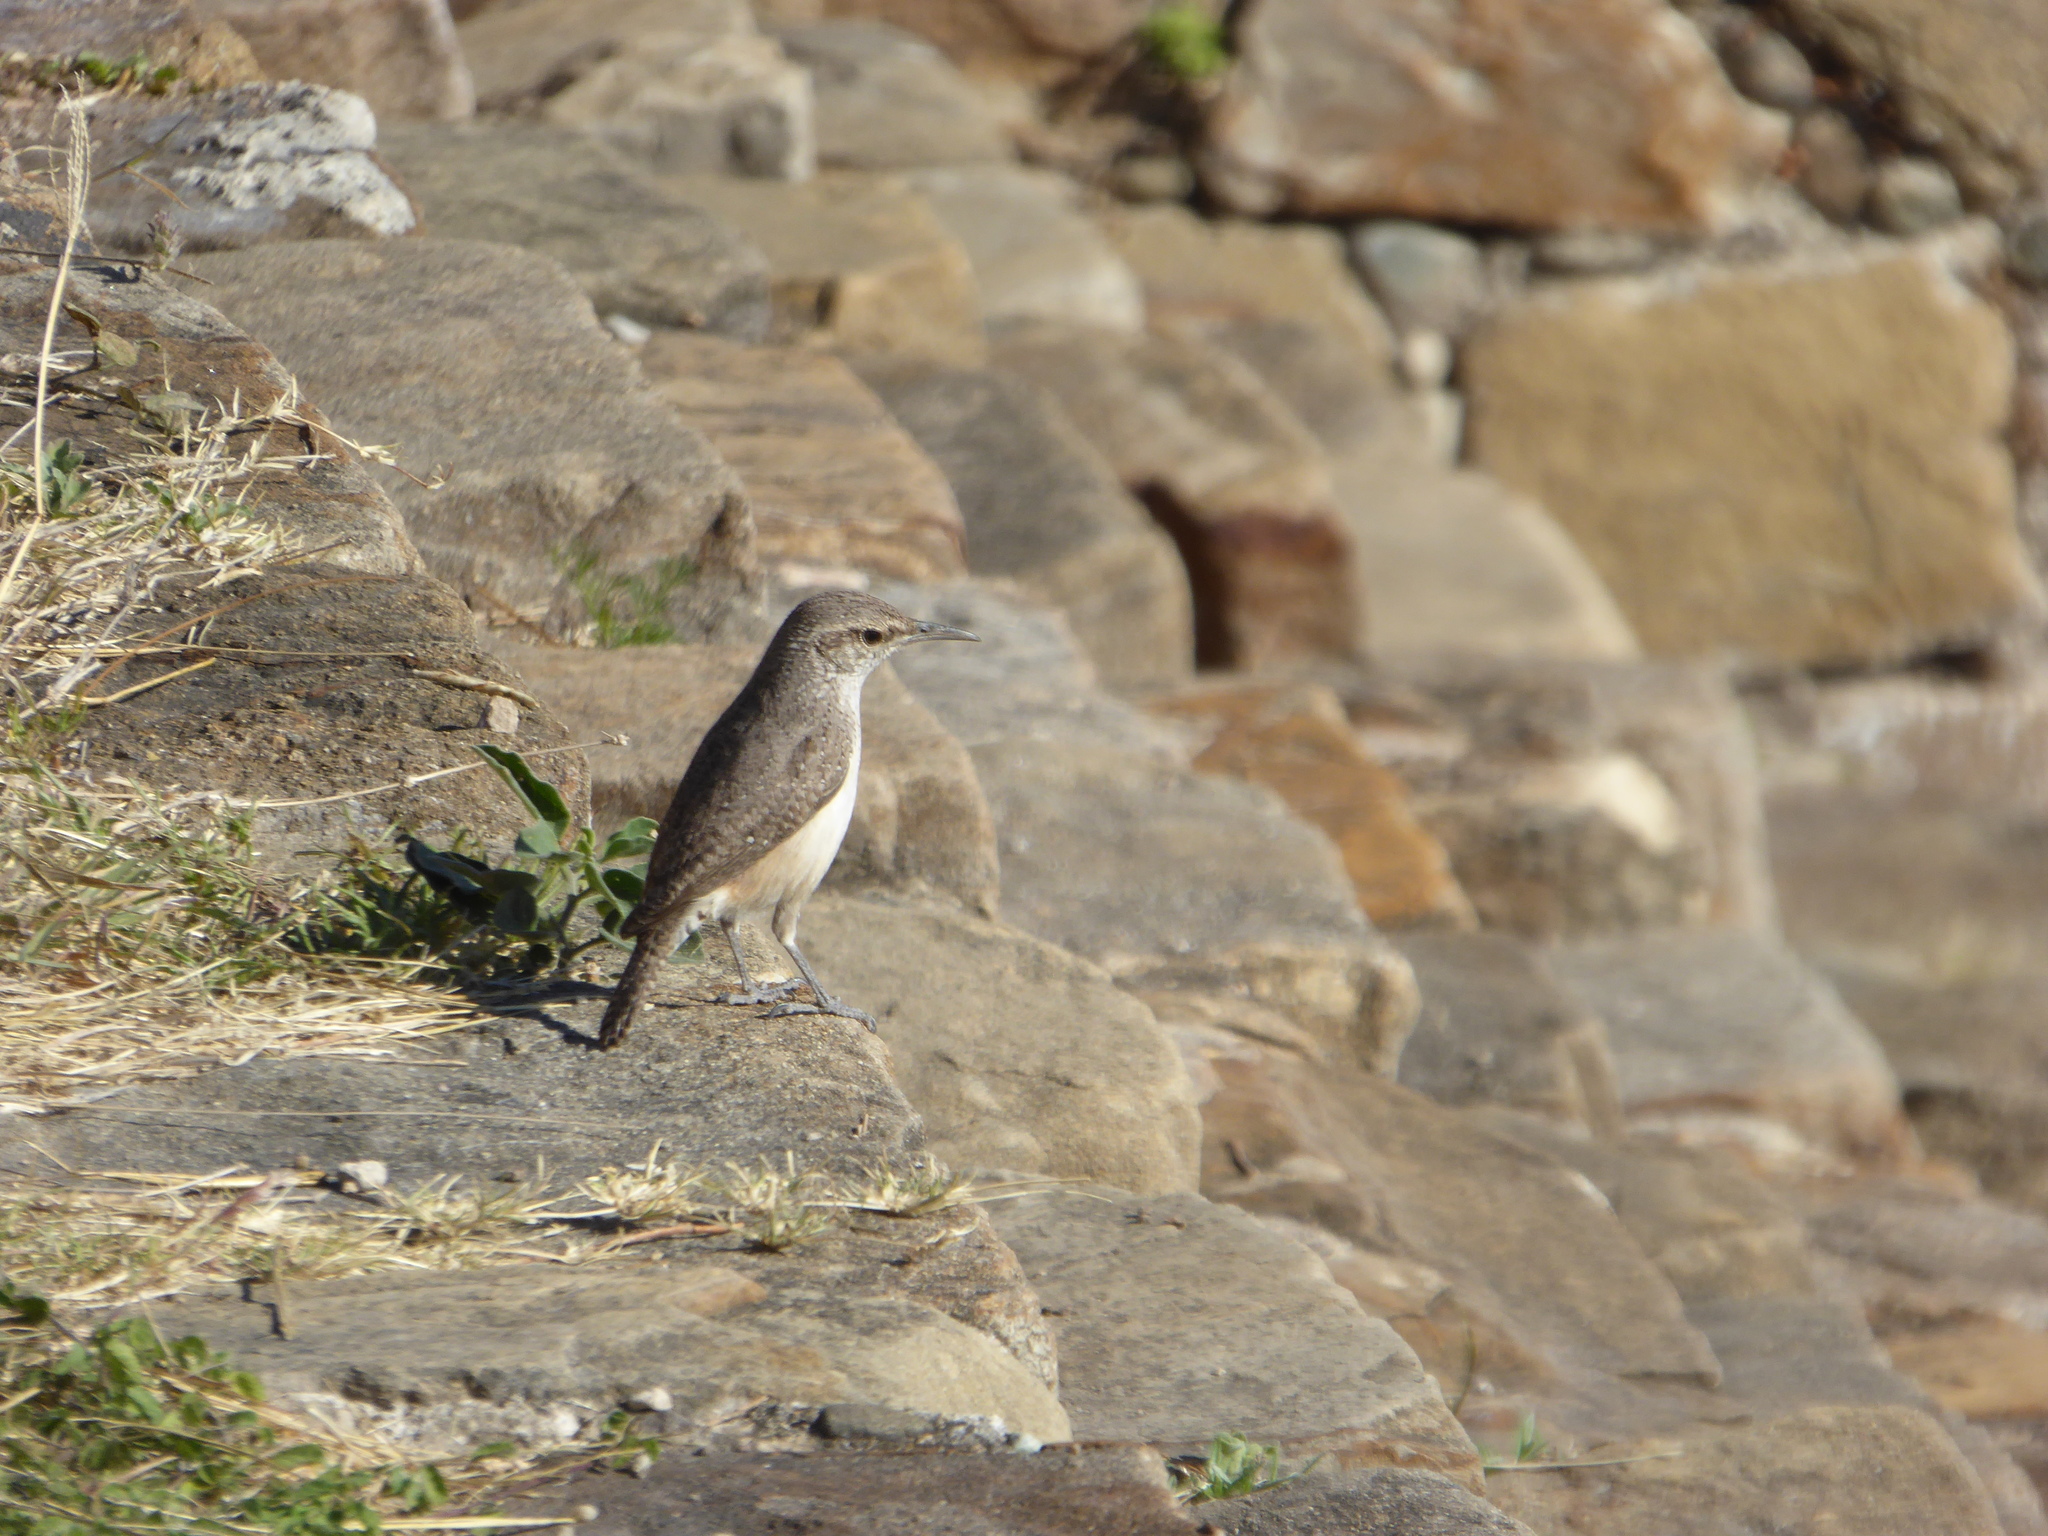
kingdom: Animalia
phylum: Chordata
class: Aves
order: Passeriformes
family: Troglodytidae
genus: Salpinctes
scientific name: Salpinctes obsoletus
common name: Rock wren
